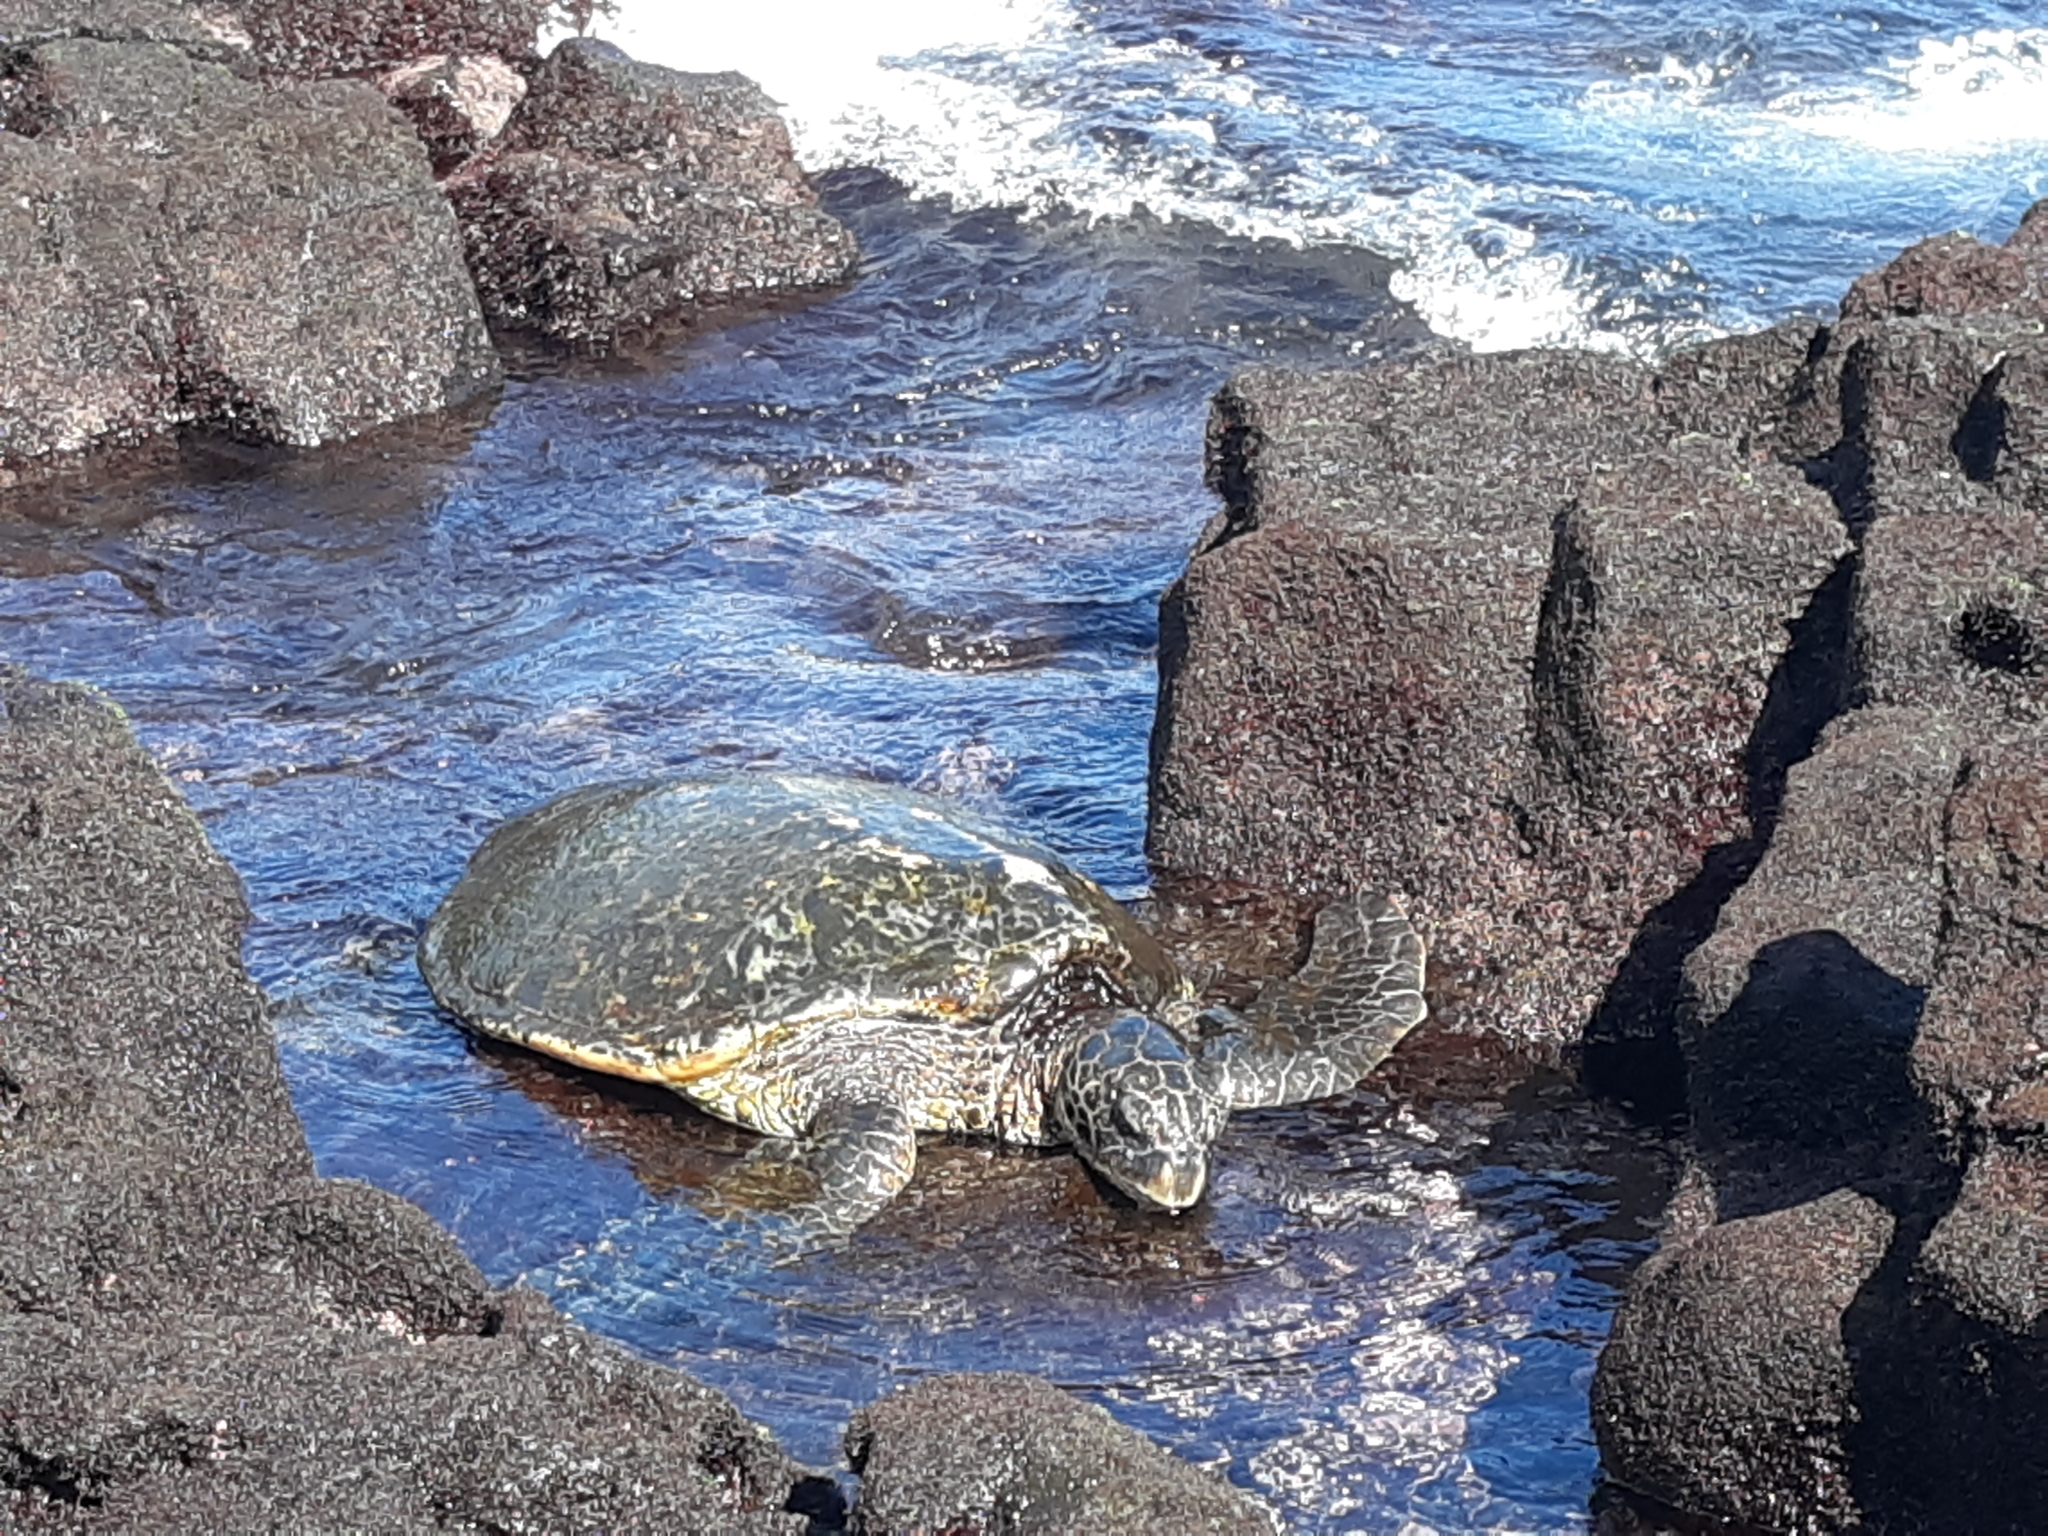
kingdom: Animalia
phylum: Chordata
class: Testudines
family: Cheloniidae
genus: Chelonia
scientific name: Chelonia mydas
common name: Green turtle
